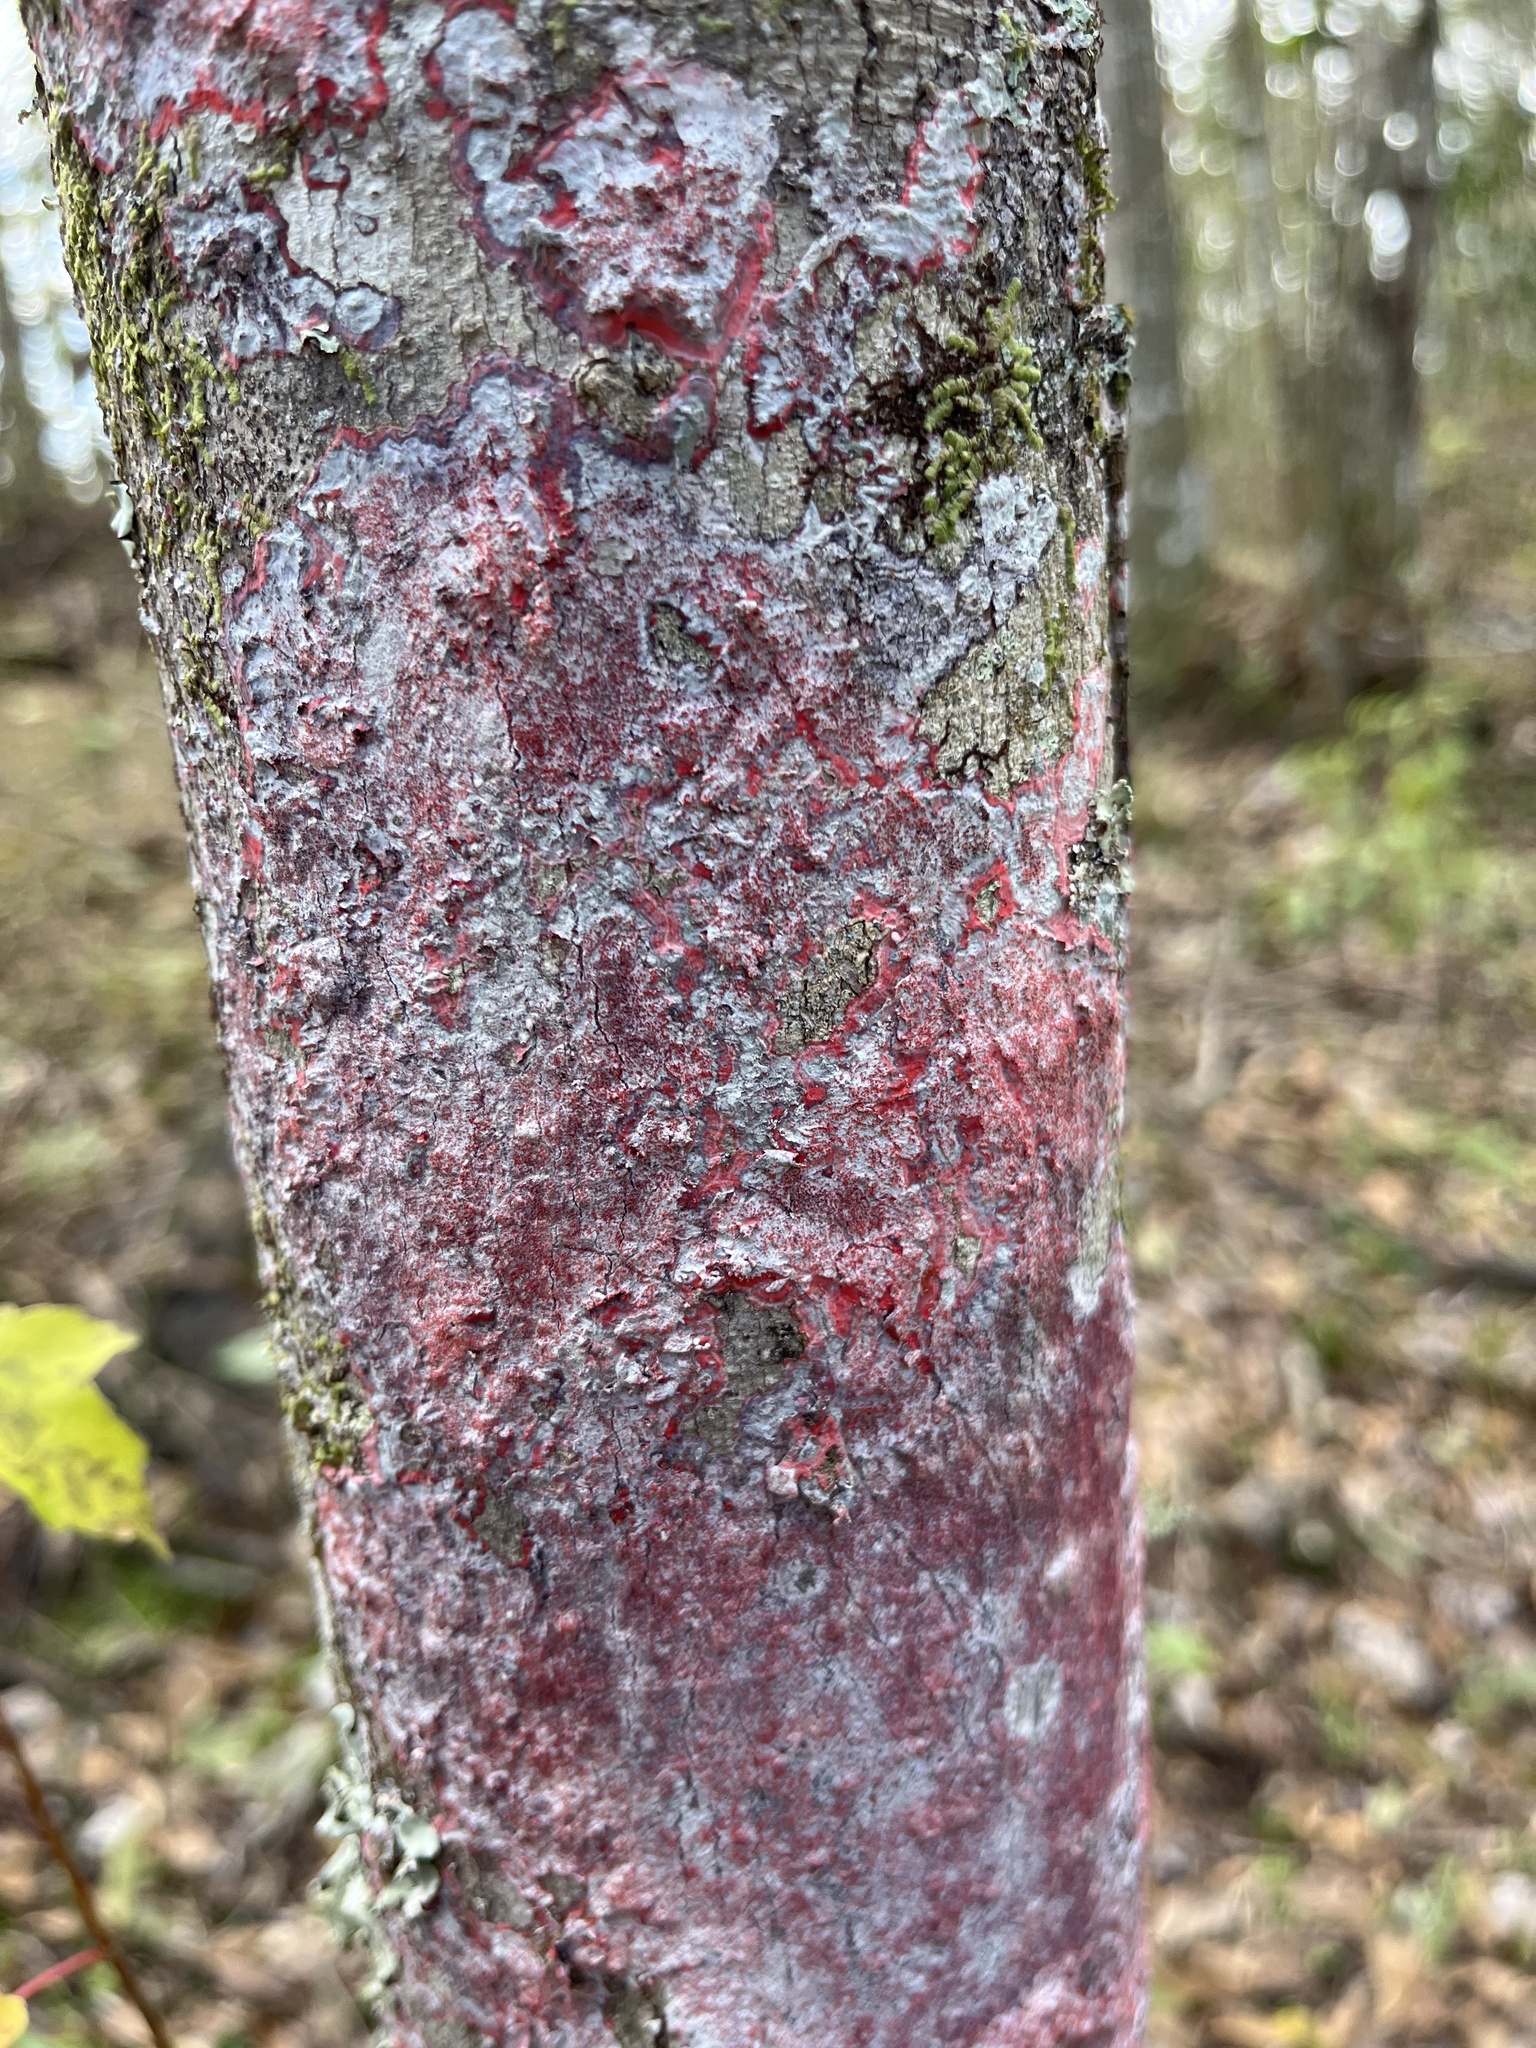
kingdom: Fungi
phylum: Ascomycota
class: Arthoniomycetes
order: Arthoniales
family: Arthoniaceae
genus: Herpothallon
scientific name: Herpothallon rubrocinctum
